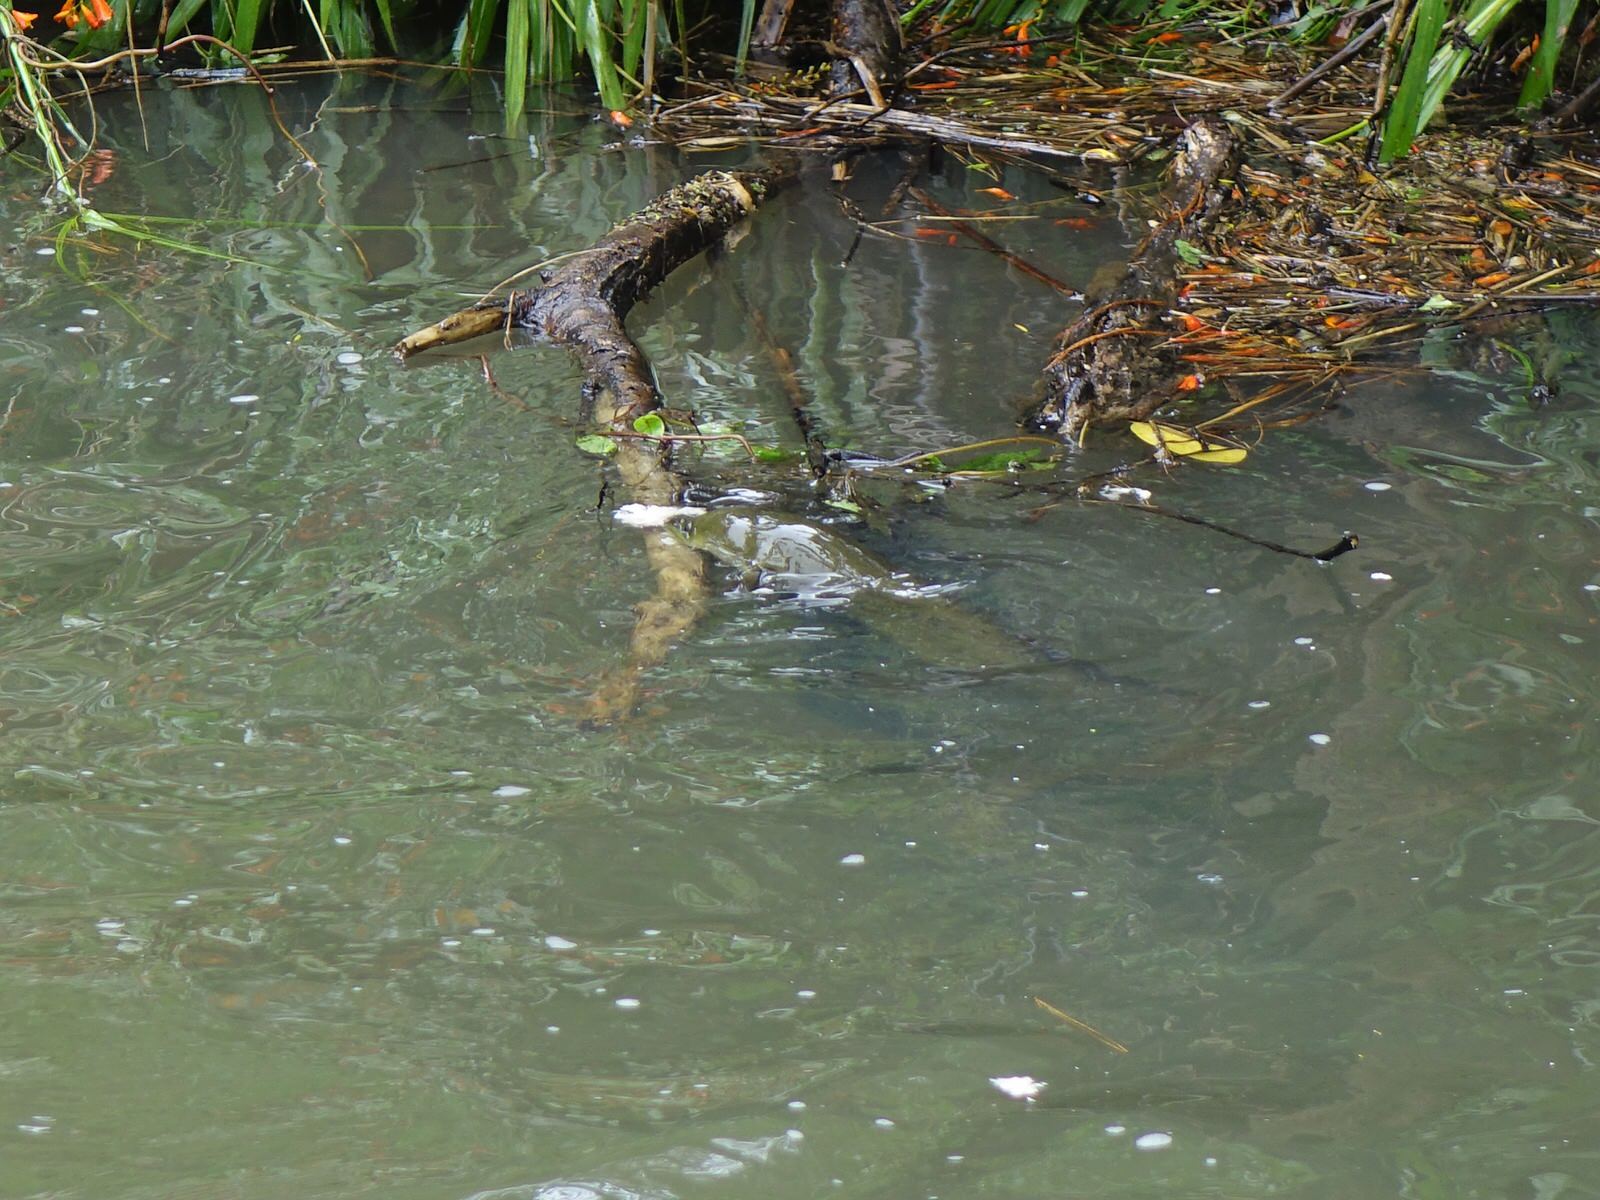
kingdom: Animalia
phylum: Chordata
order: Anguilliformes
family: Anguillidae
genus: Anguilla
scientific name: Anguilla dieffenbachii
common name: New zealand longfin eel
